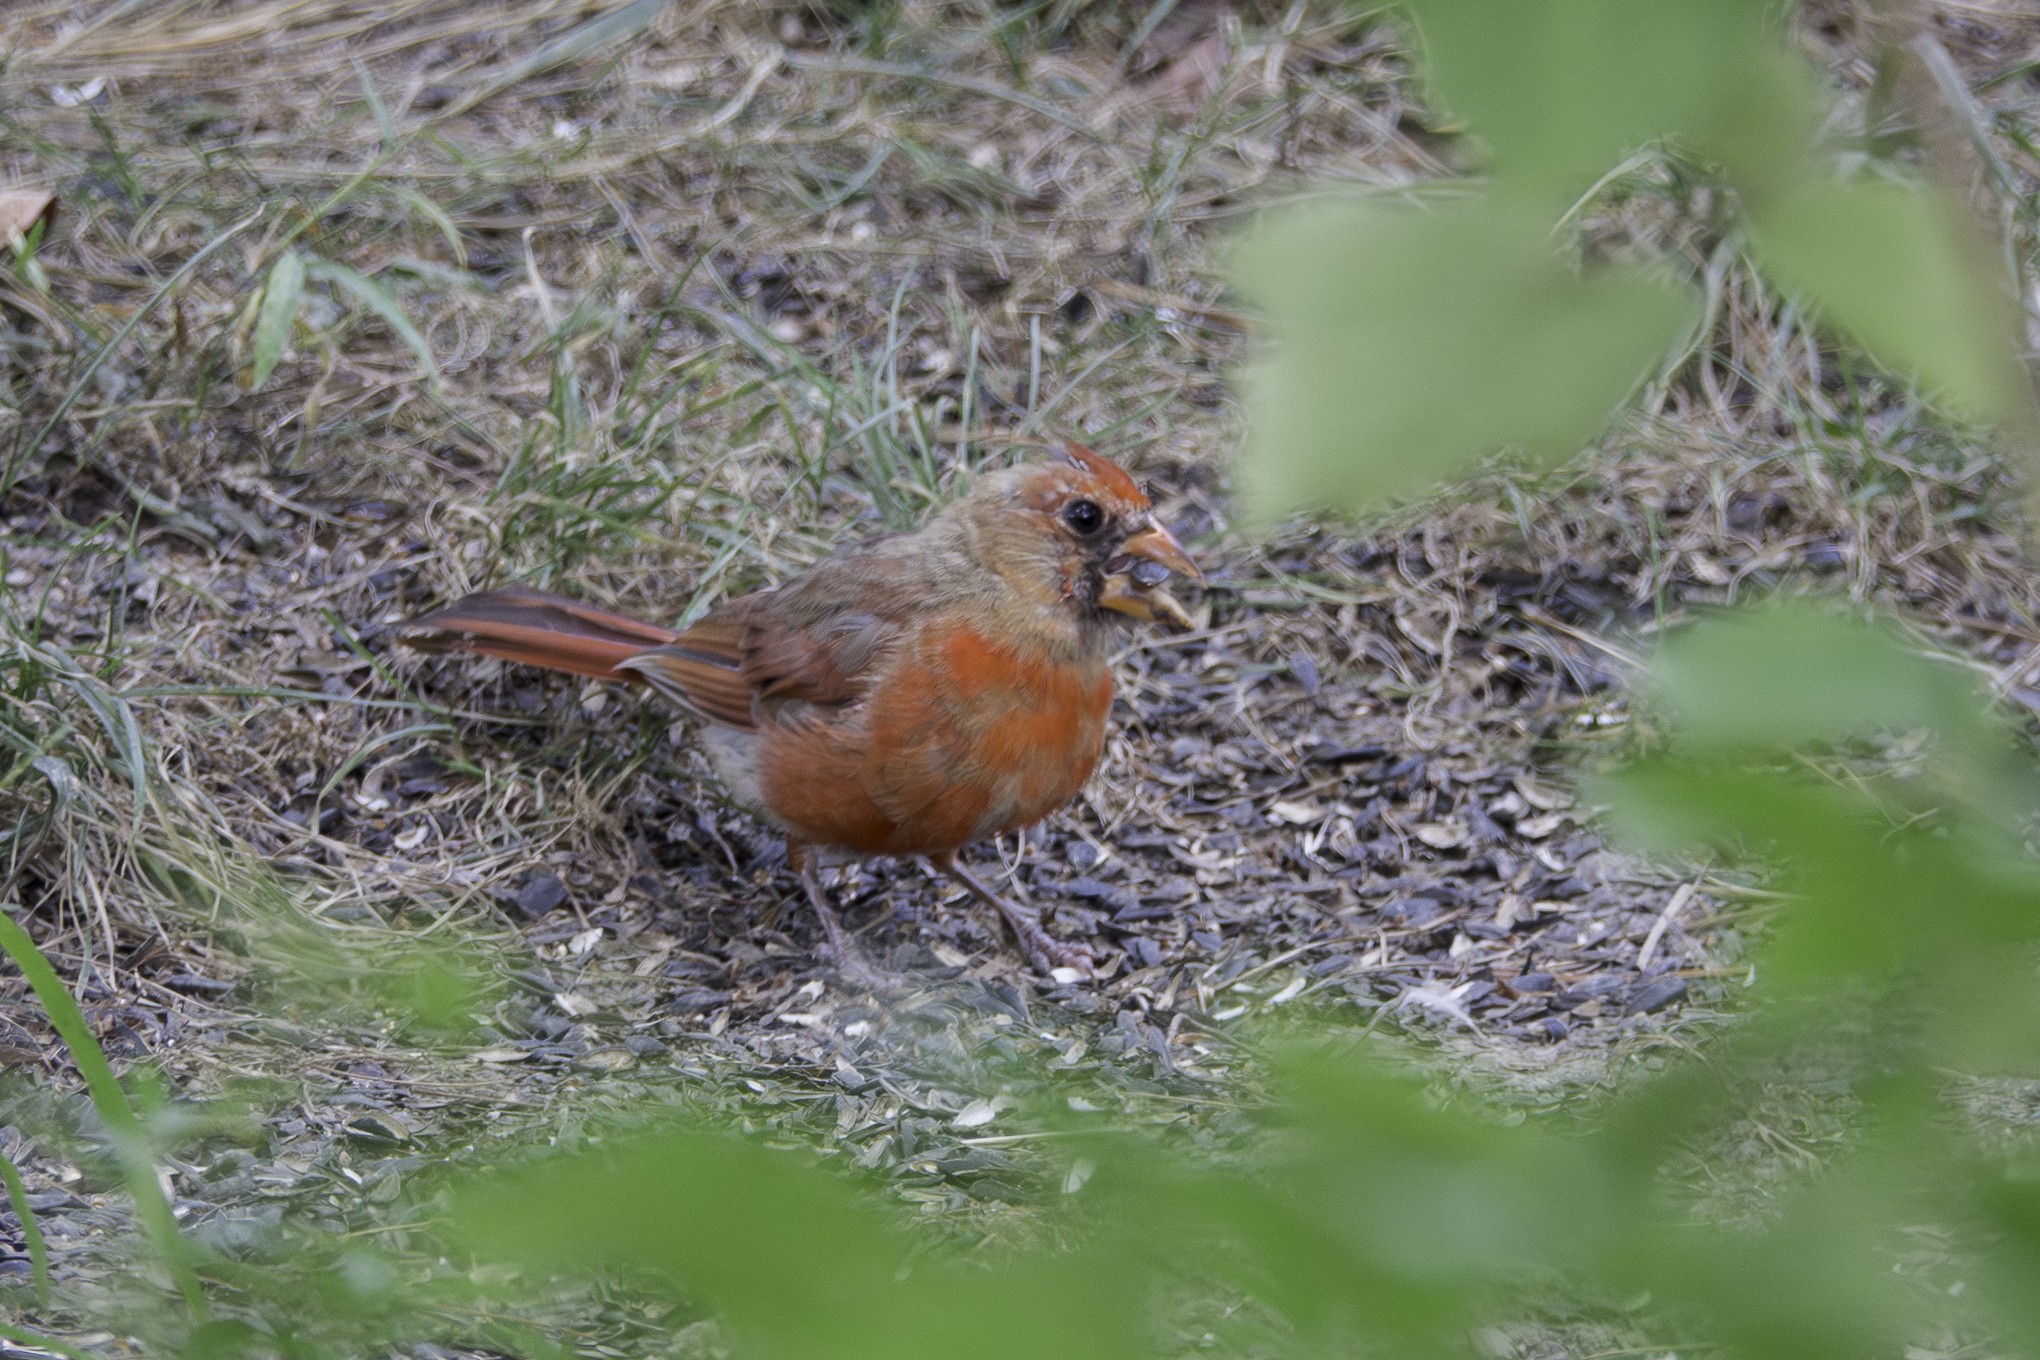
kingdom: Animalia
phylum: Chordata
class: Aves
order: Passeriformes
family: Cardinalidae
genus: Cardinalis
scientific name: Cardinalis cardinalis
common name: Northern cardinal
